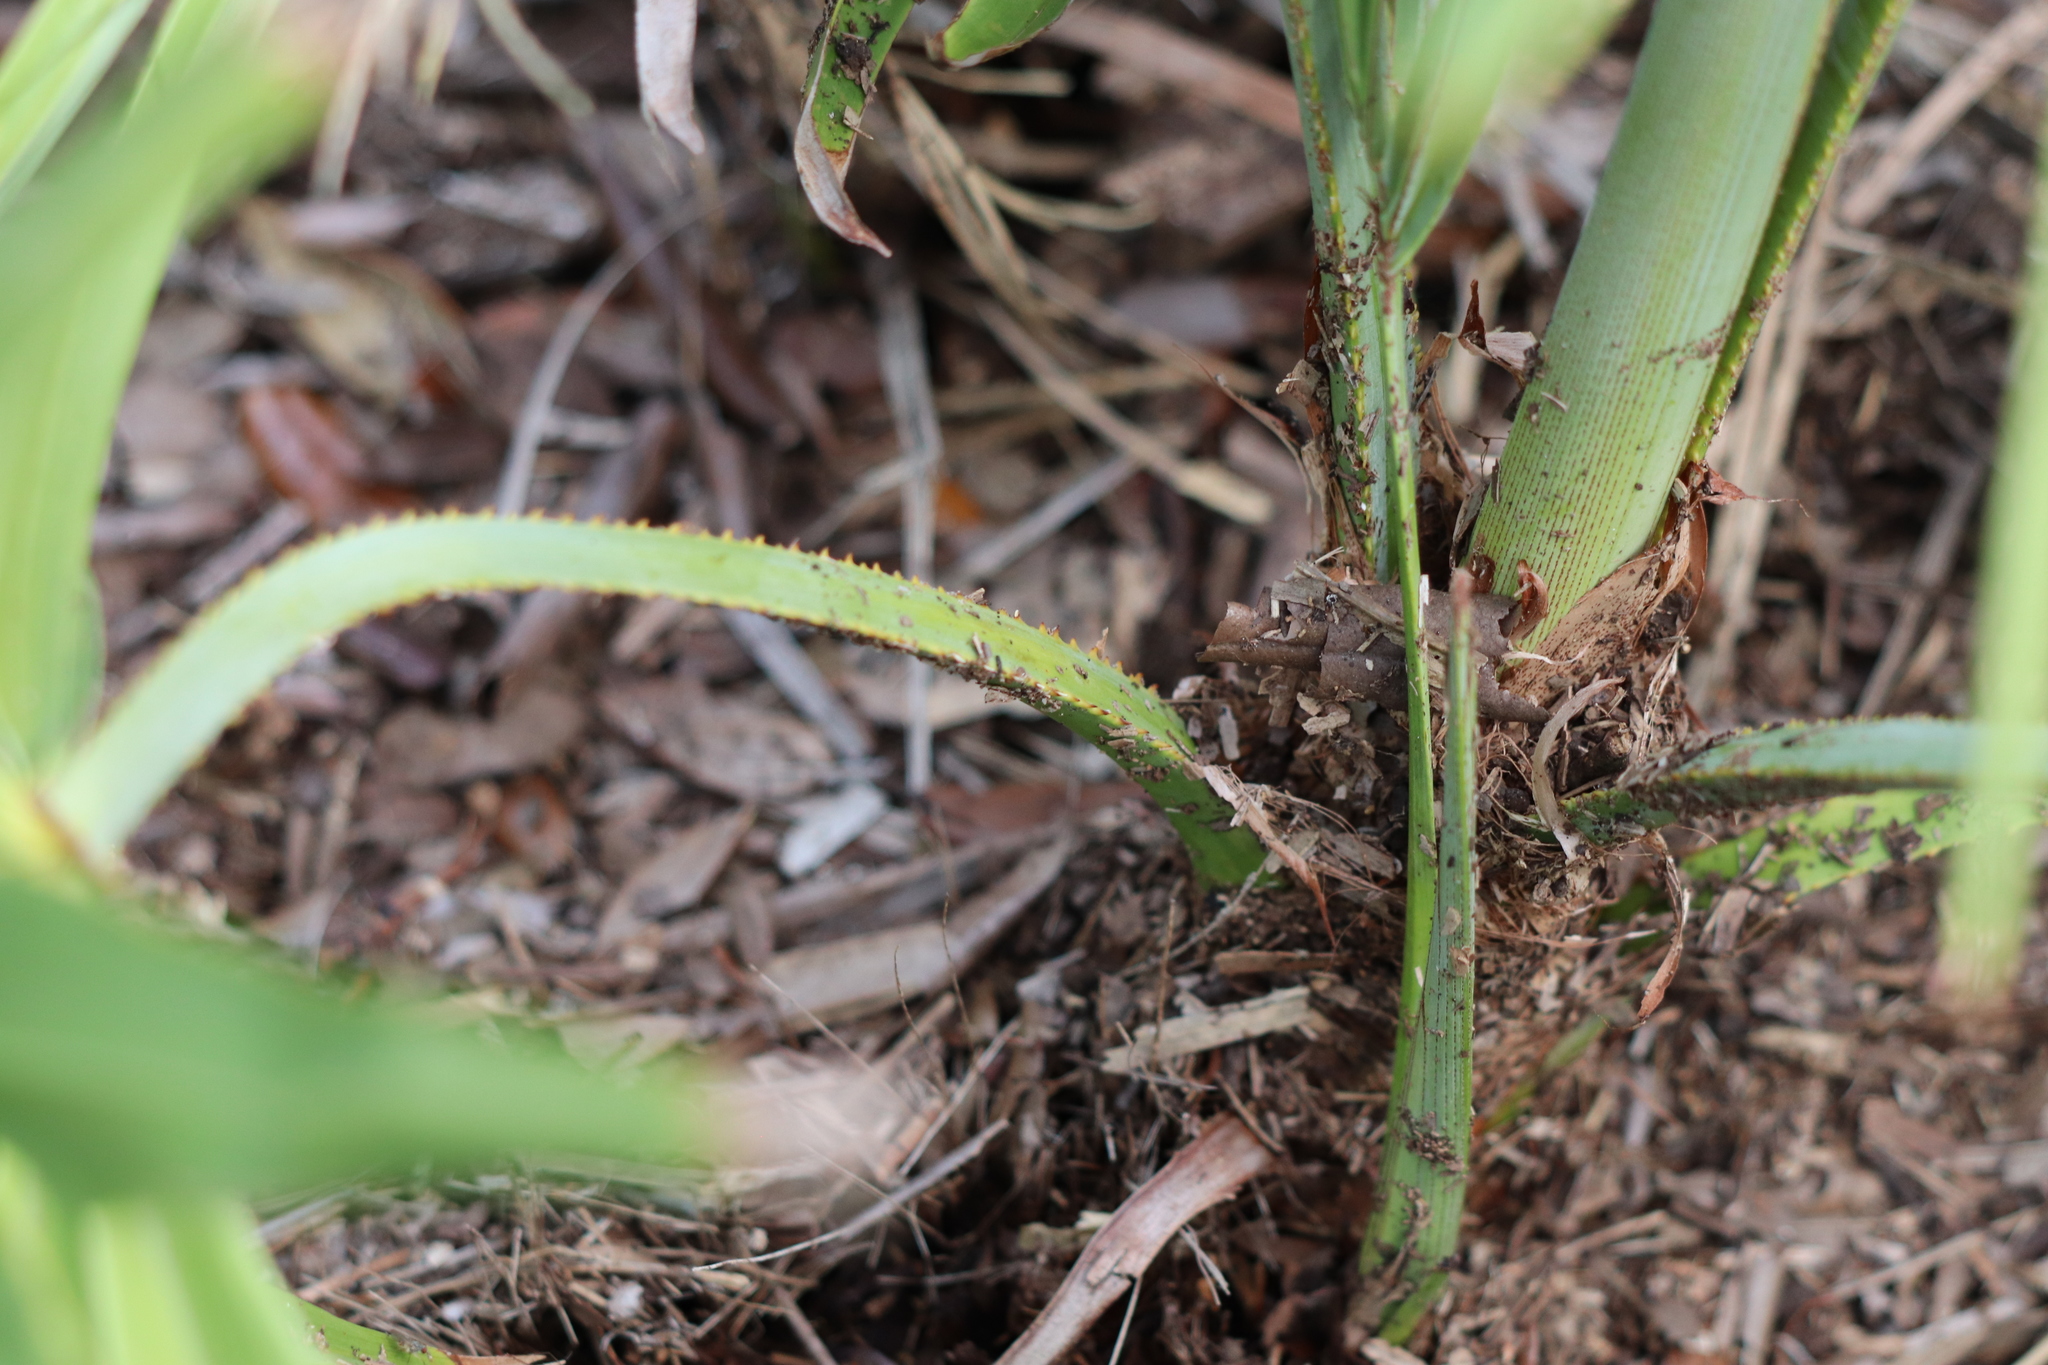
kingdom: Plantae
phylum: Tracheophyta
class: Liliopsida
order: Arecales
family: Arecaceae
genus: Serenoa
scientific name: Serenoa repens
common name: Saw-palmetto
